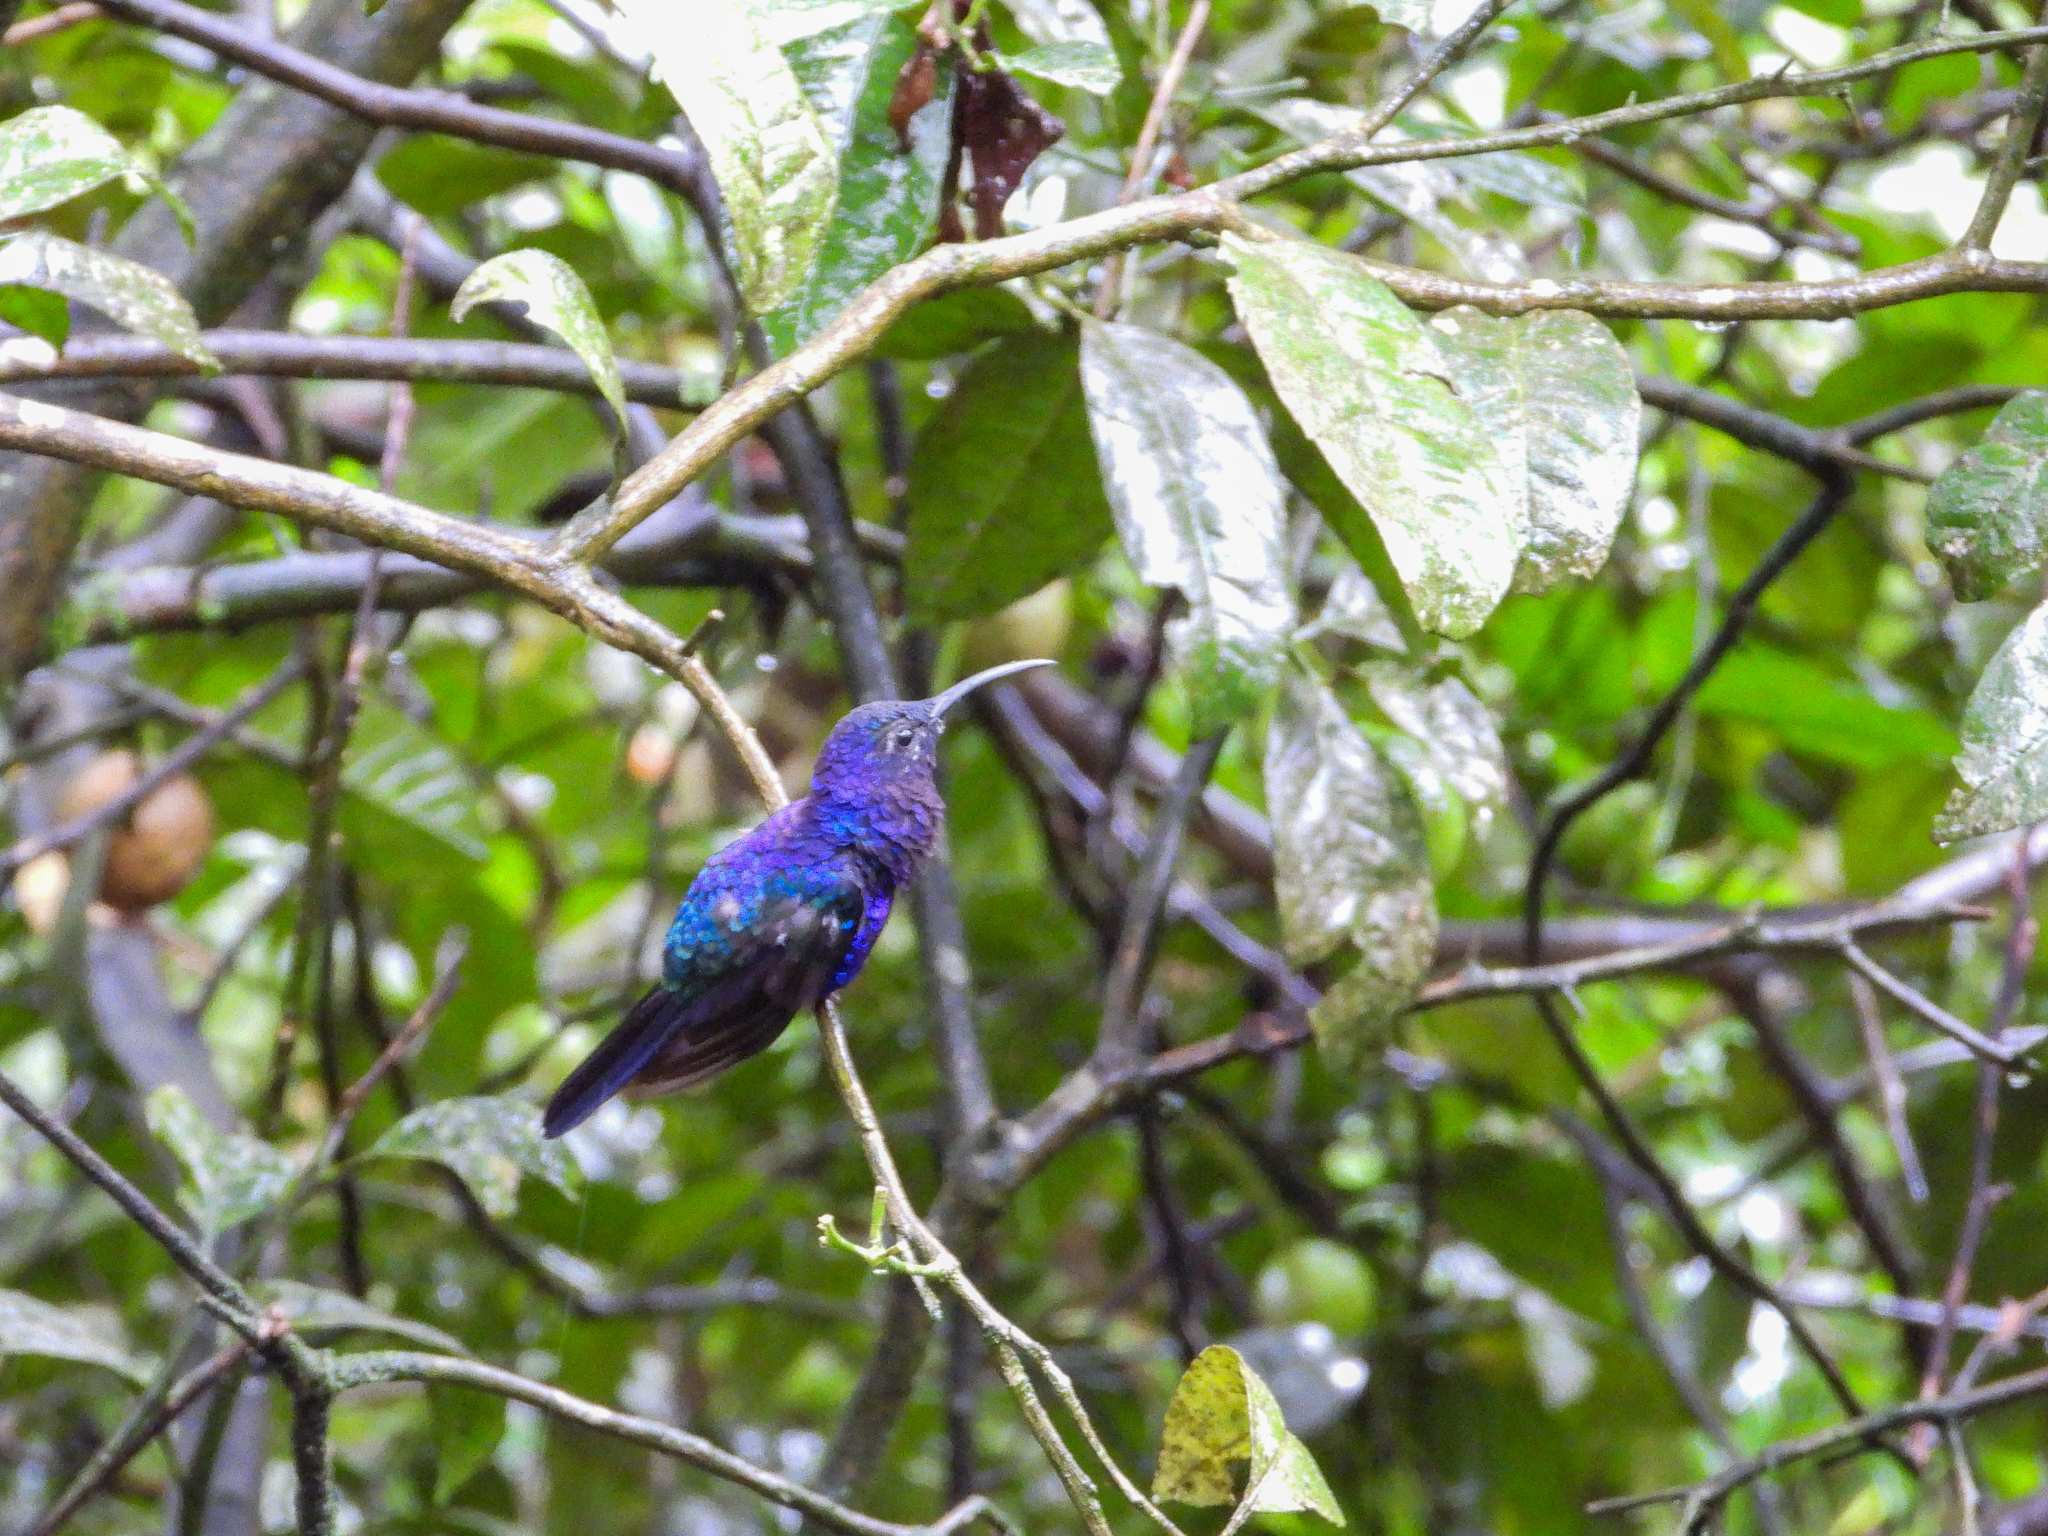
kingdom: Animalia
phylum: Chordata
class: Aves
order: Apodiformes
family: Trochilidae
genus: Campylopterus
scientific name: Campylopterus hemileucurus
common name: Violet sabrewing
